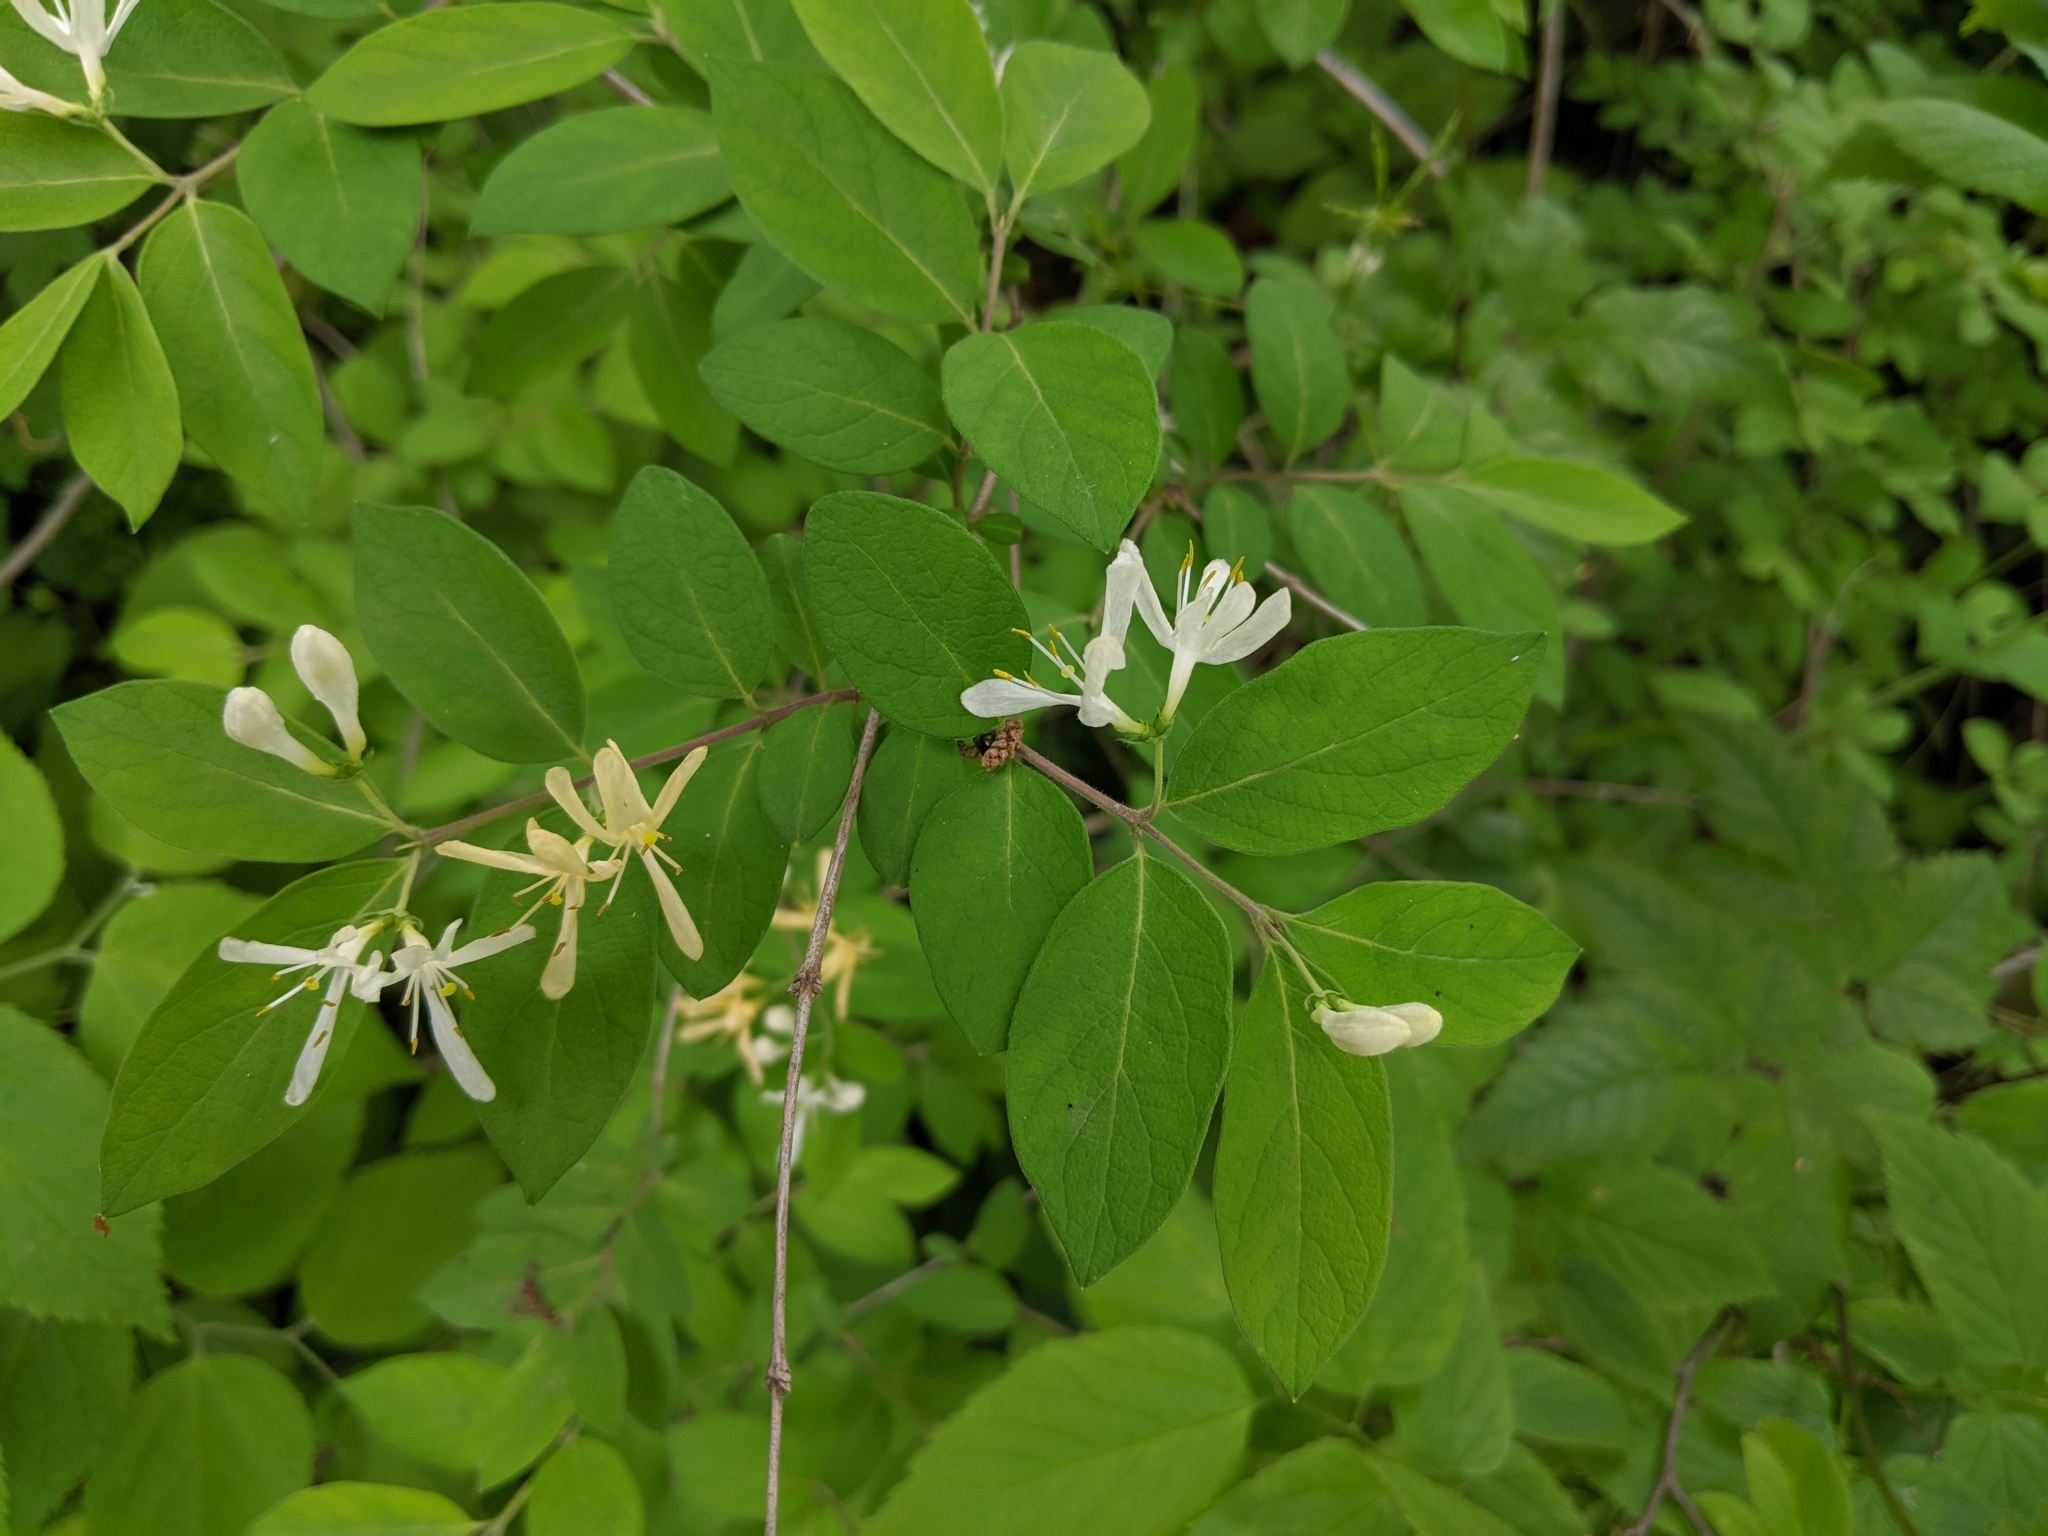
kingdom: Plantae
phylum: Tracheophyta
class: Magnoliopsida
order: Dipsacales
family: Caprifoliaceae
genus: Lonicera
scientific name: Lonicera morrowii
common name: Morrow's honeysuckle
